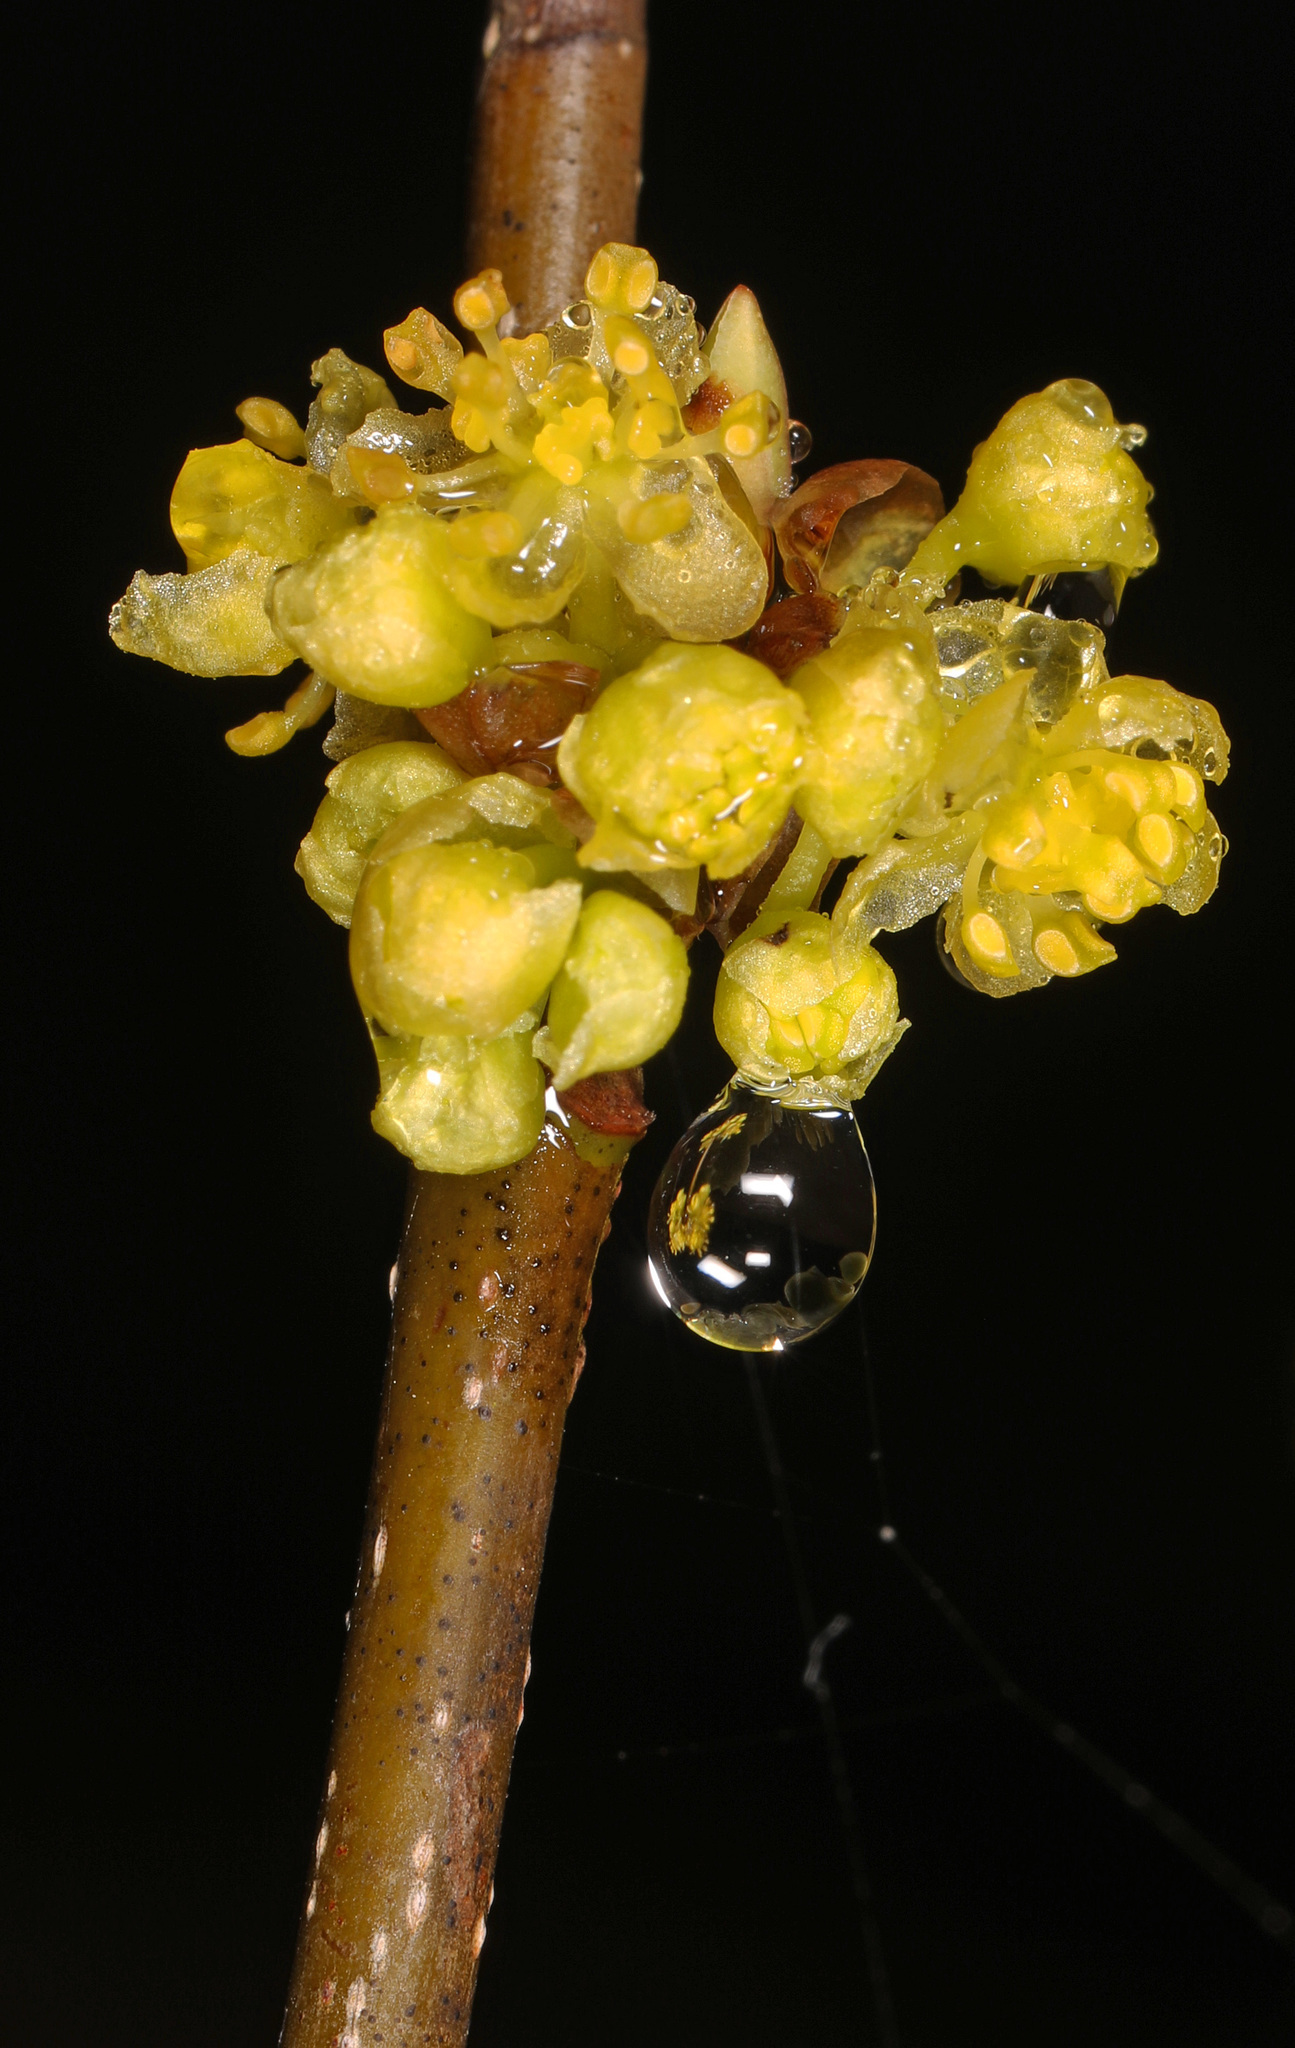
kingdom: Plantae
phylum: Tracheophyta
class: Magnoliopsida
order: Laurales
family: Lauraceae
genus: Lindera
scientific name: Lindera benzoin
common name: Spicebush
